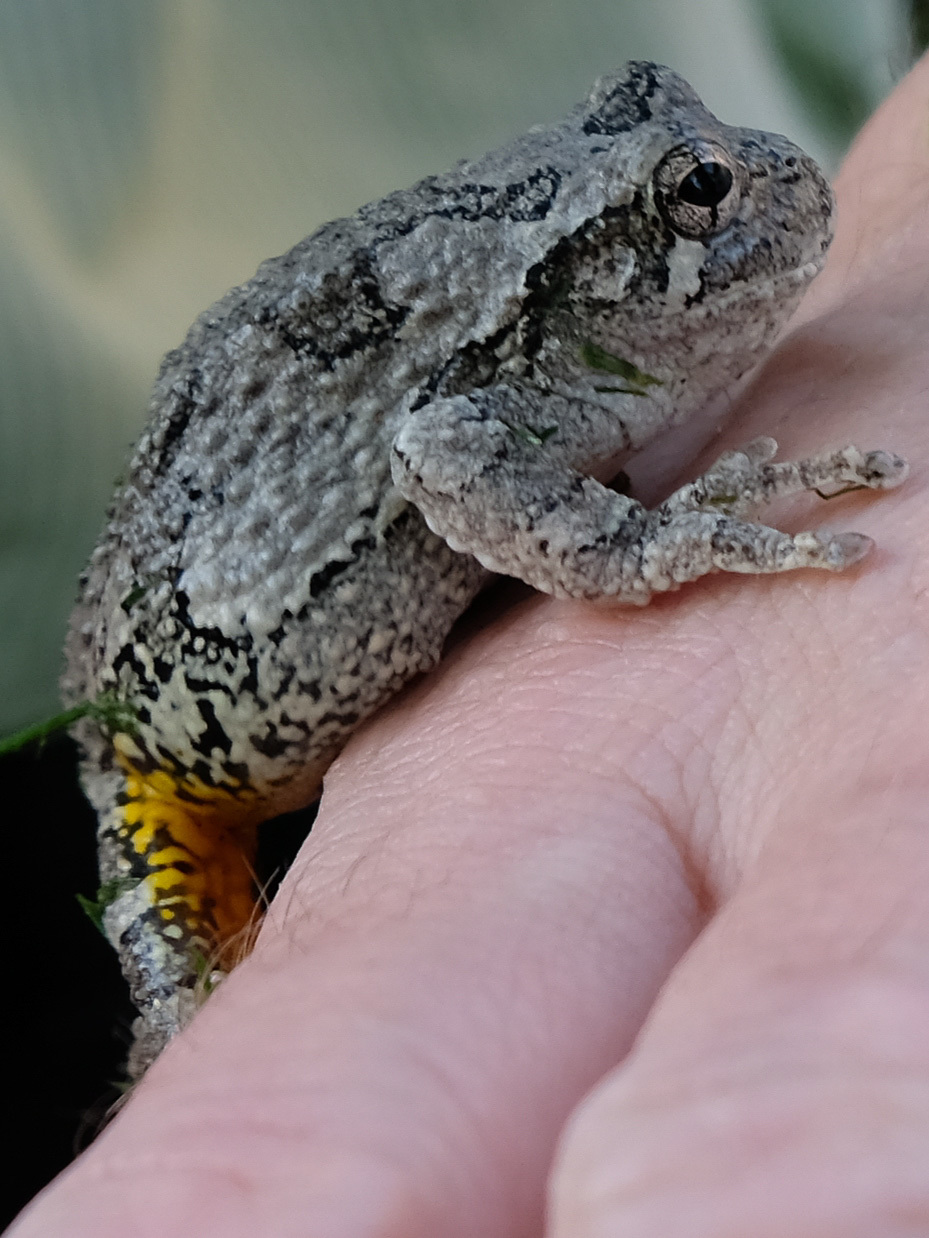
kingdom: Animalia
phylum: Chordata
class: Amphibia
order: Anura
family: Hylidae
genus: Dryophytes
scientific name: Dryophytes versicolor
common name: Gray treefrog
